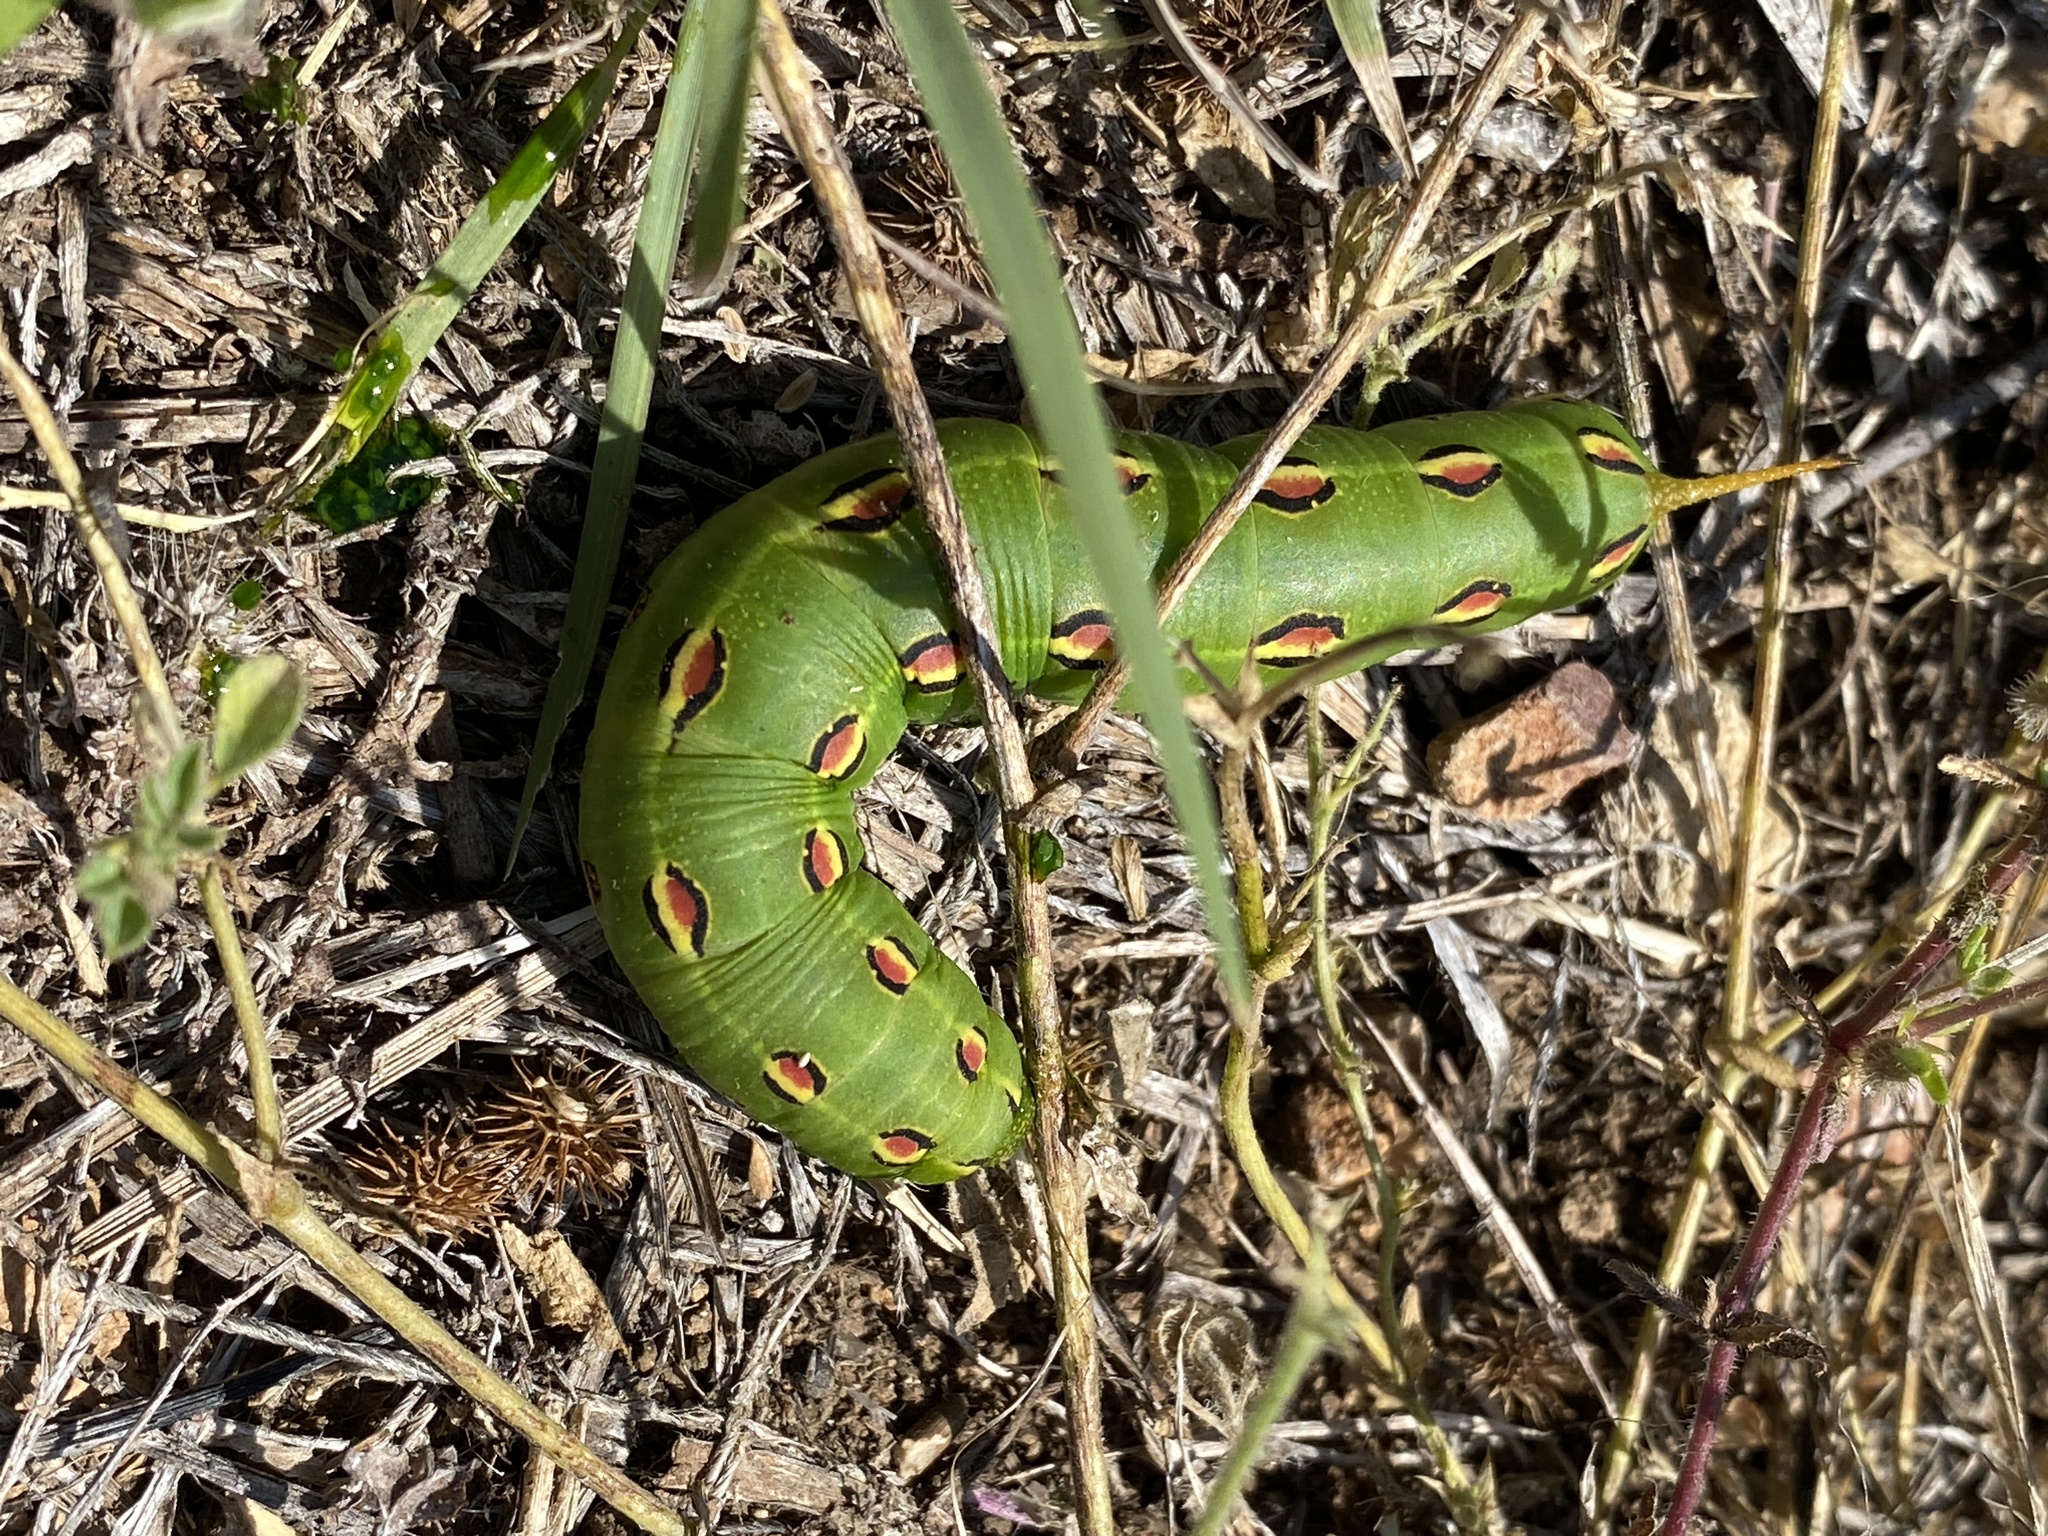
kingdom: Animalia
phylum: Arthropoda
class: Insecta
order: Lepidoptera
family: Sphingidae
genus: Hyles
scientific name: Hyles lineata
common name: White-lined sphinx
